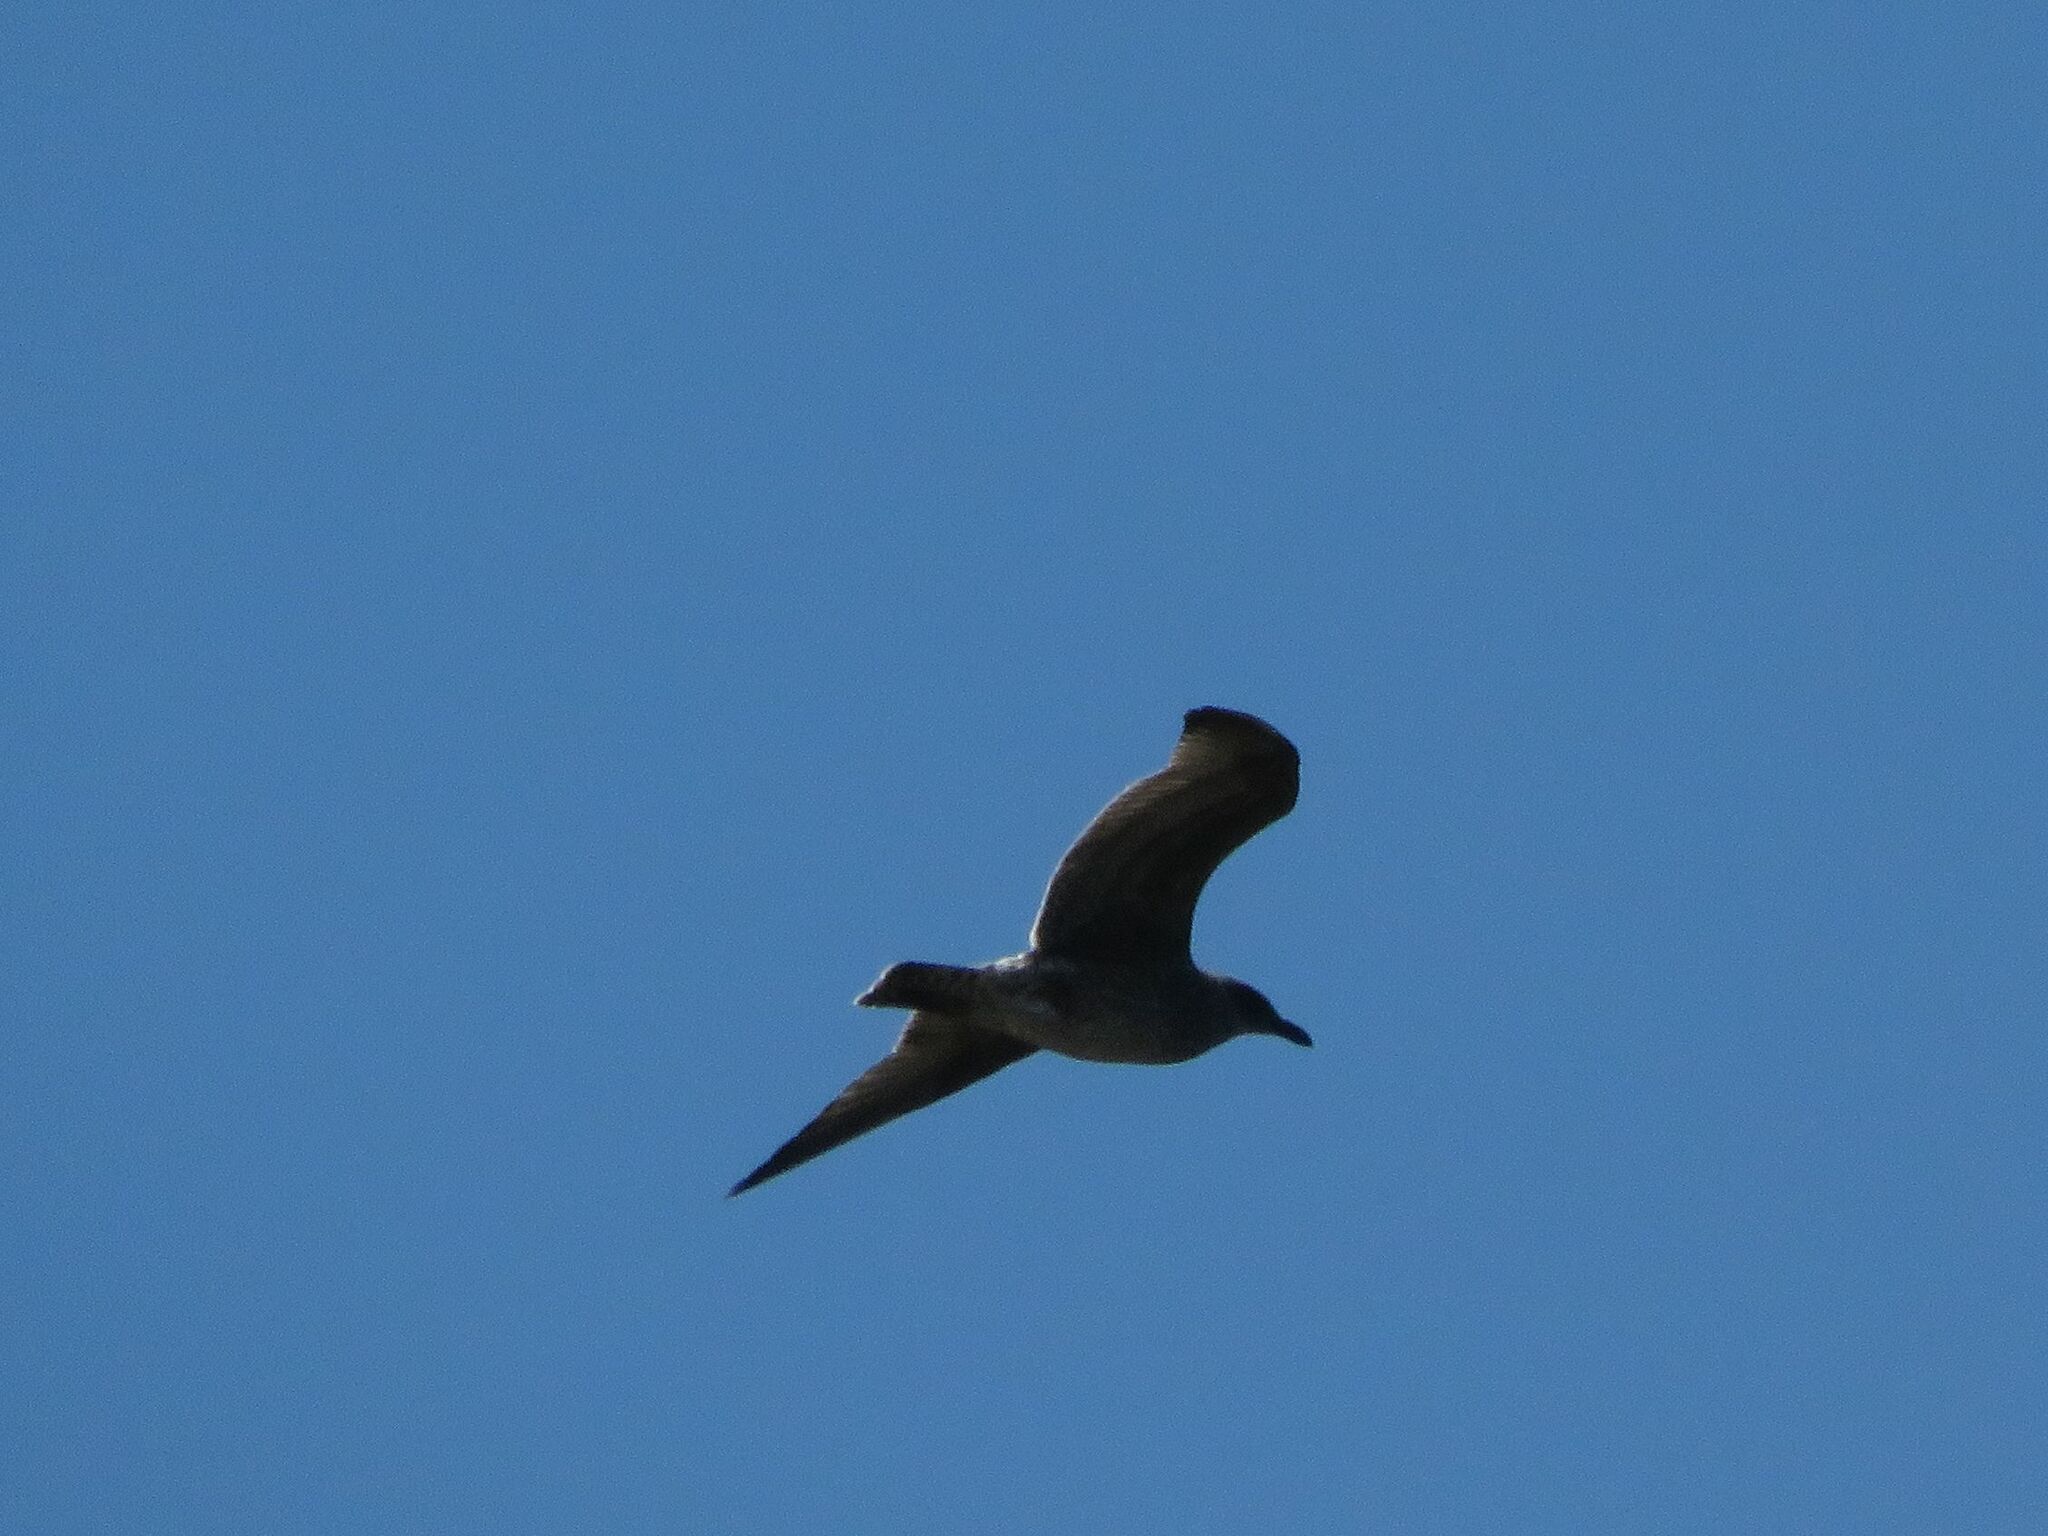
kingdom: Animalia
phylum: Chordata
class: Aves
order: Charadriiformes
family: Laridae
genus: Larus
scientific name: Larus dominicanus
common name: Kelp gull
